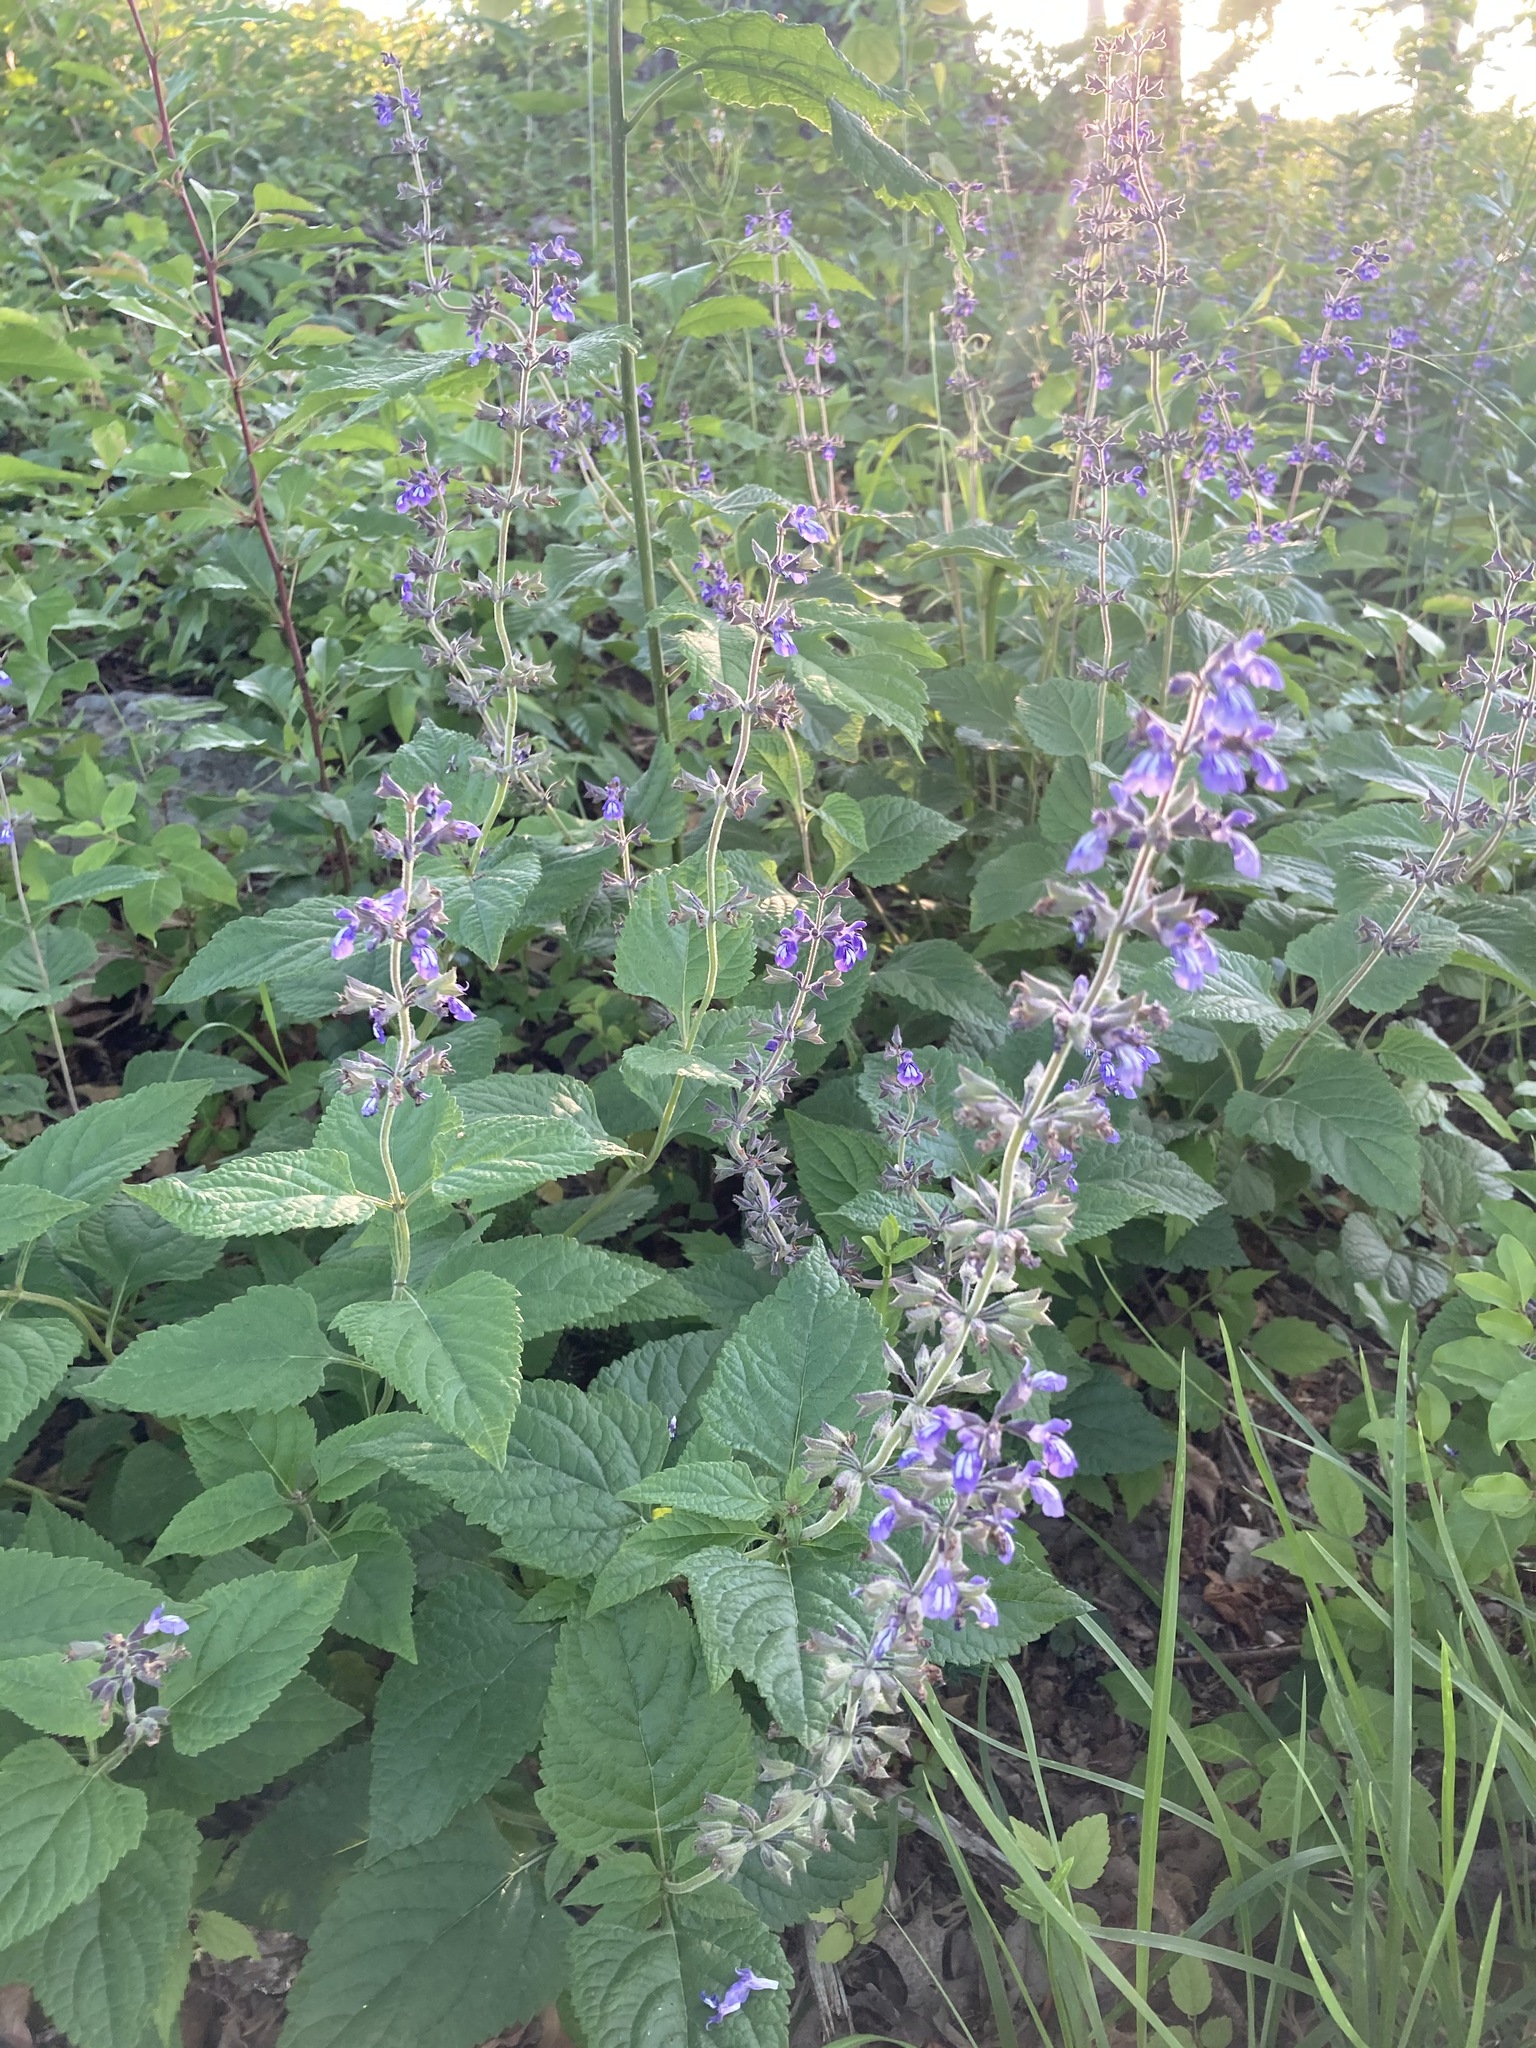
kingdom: Plantae
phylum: Tracheophyta
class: Magnoliopsida
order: Lamiales
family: Lamiaceae
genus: Salvia
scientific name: Salvia urticifolia
